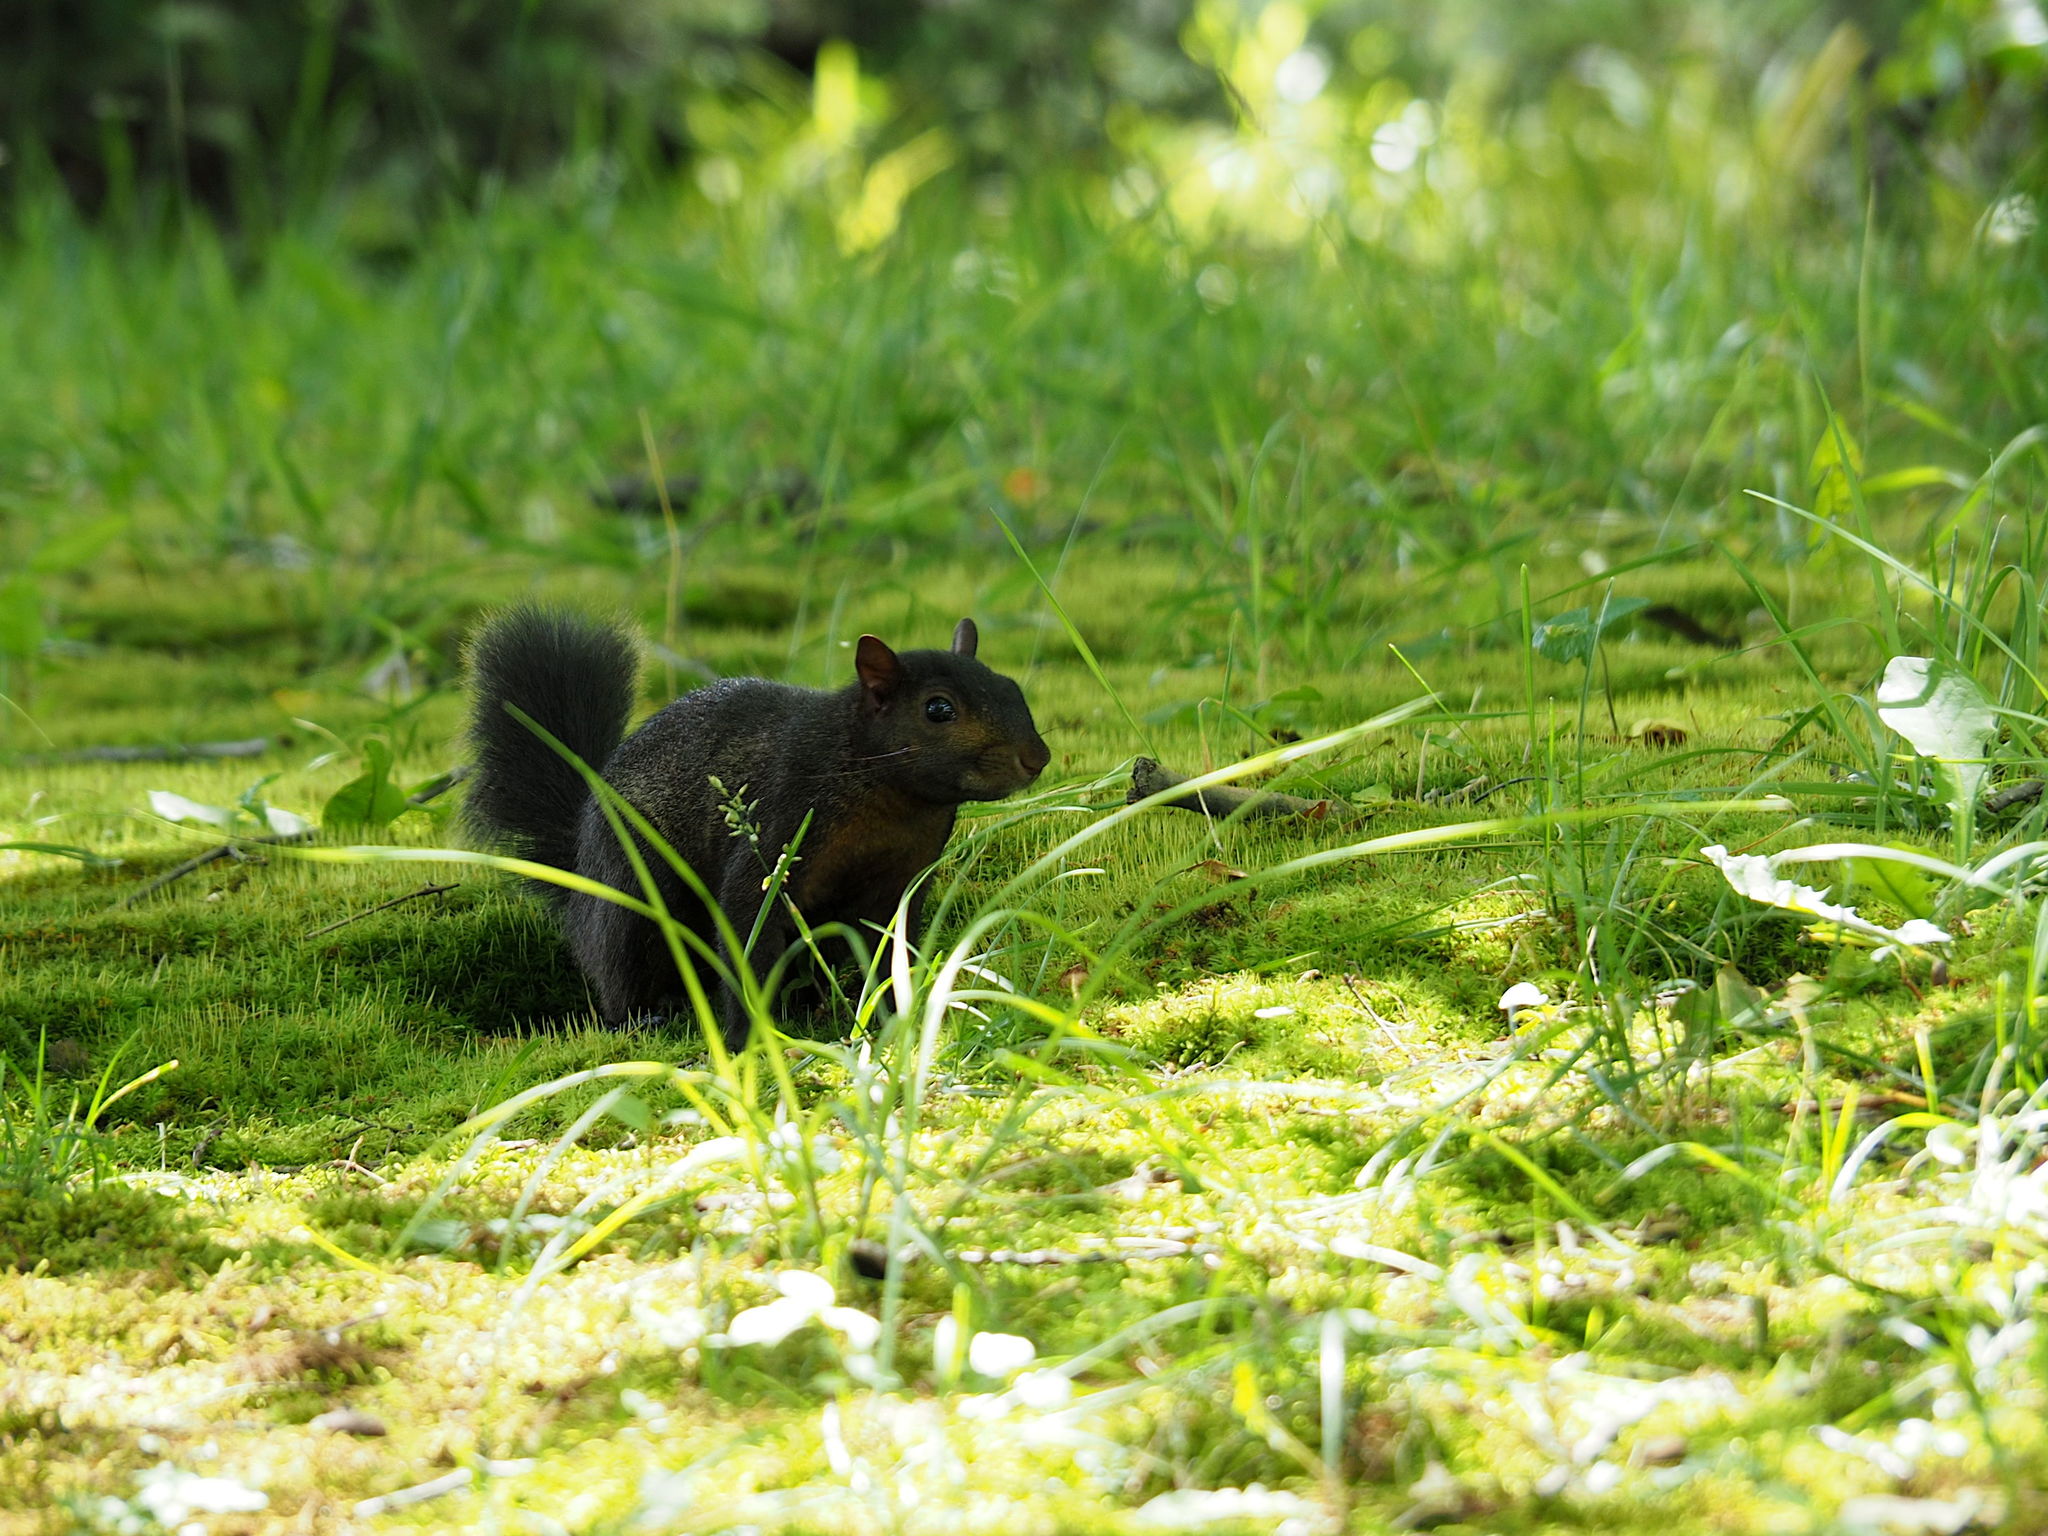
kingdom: Animalia
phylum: Chordata
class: Mammalia
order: Rodentia
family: Sciuridae
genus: Sciurus
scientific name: Sciurus carolinensis
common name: Eastern gray squirrel
